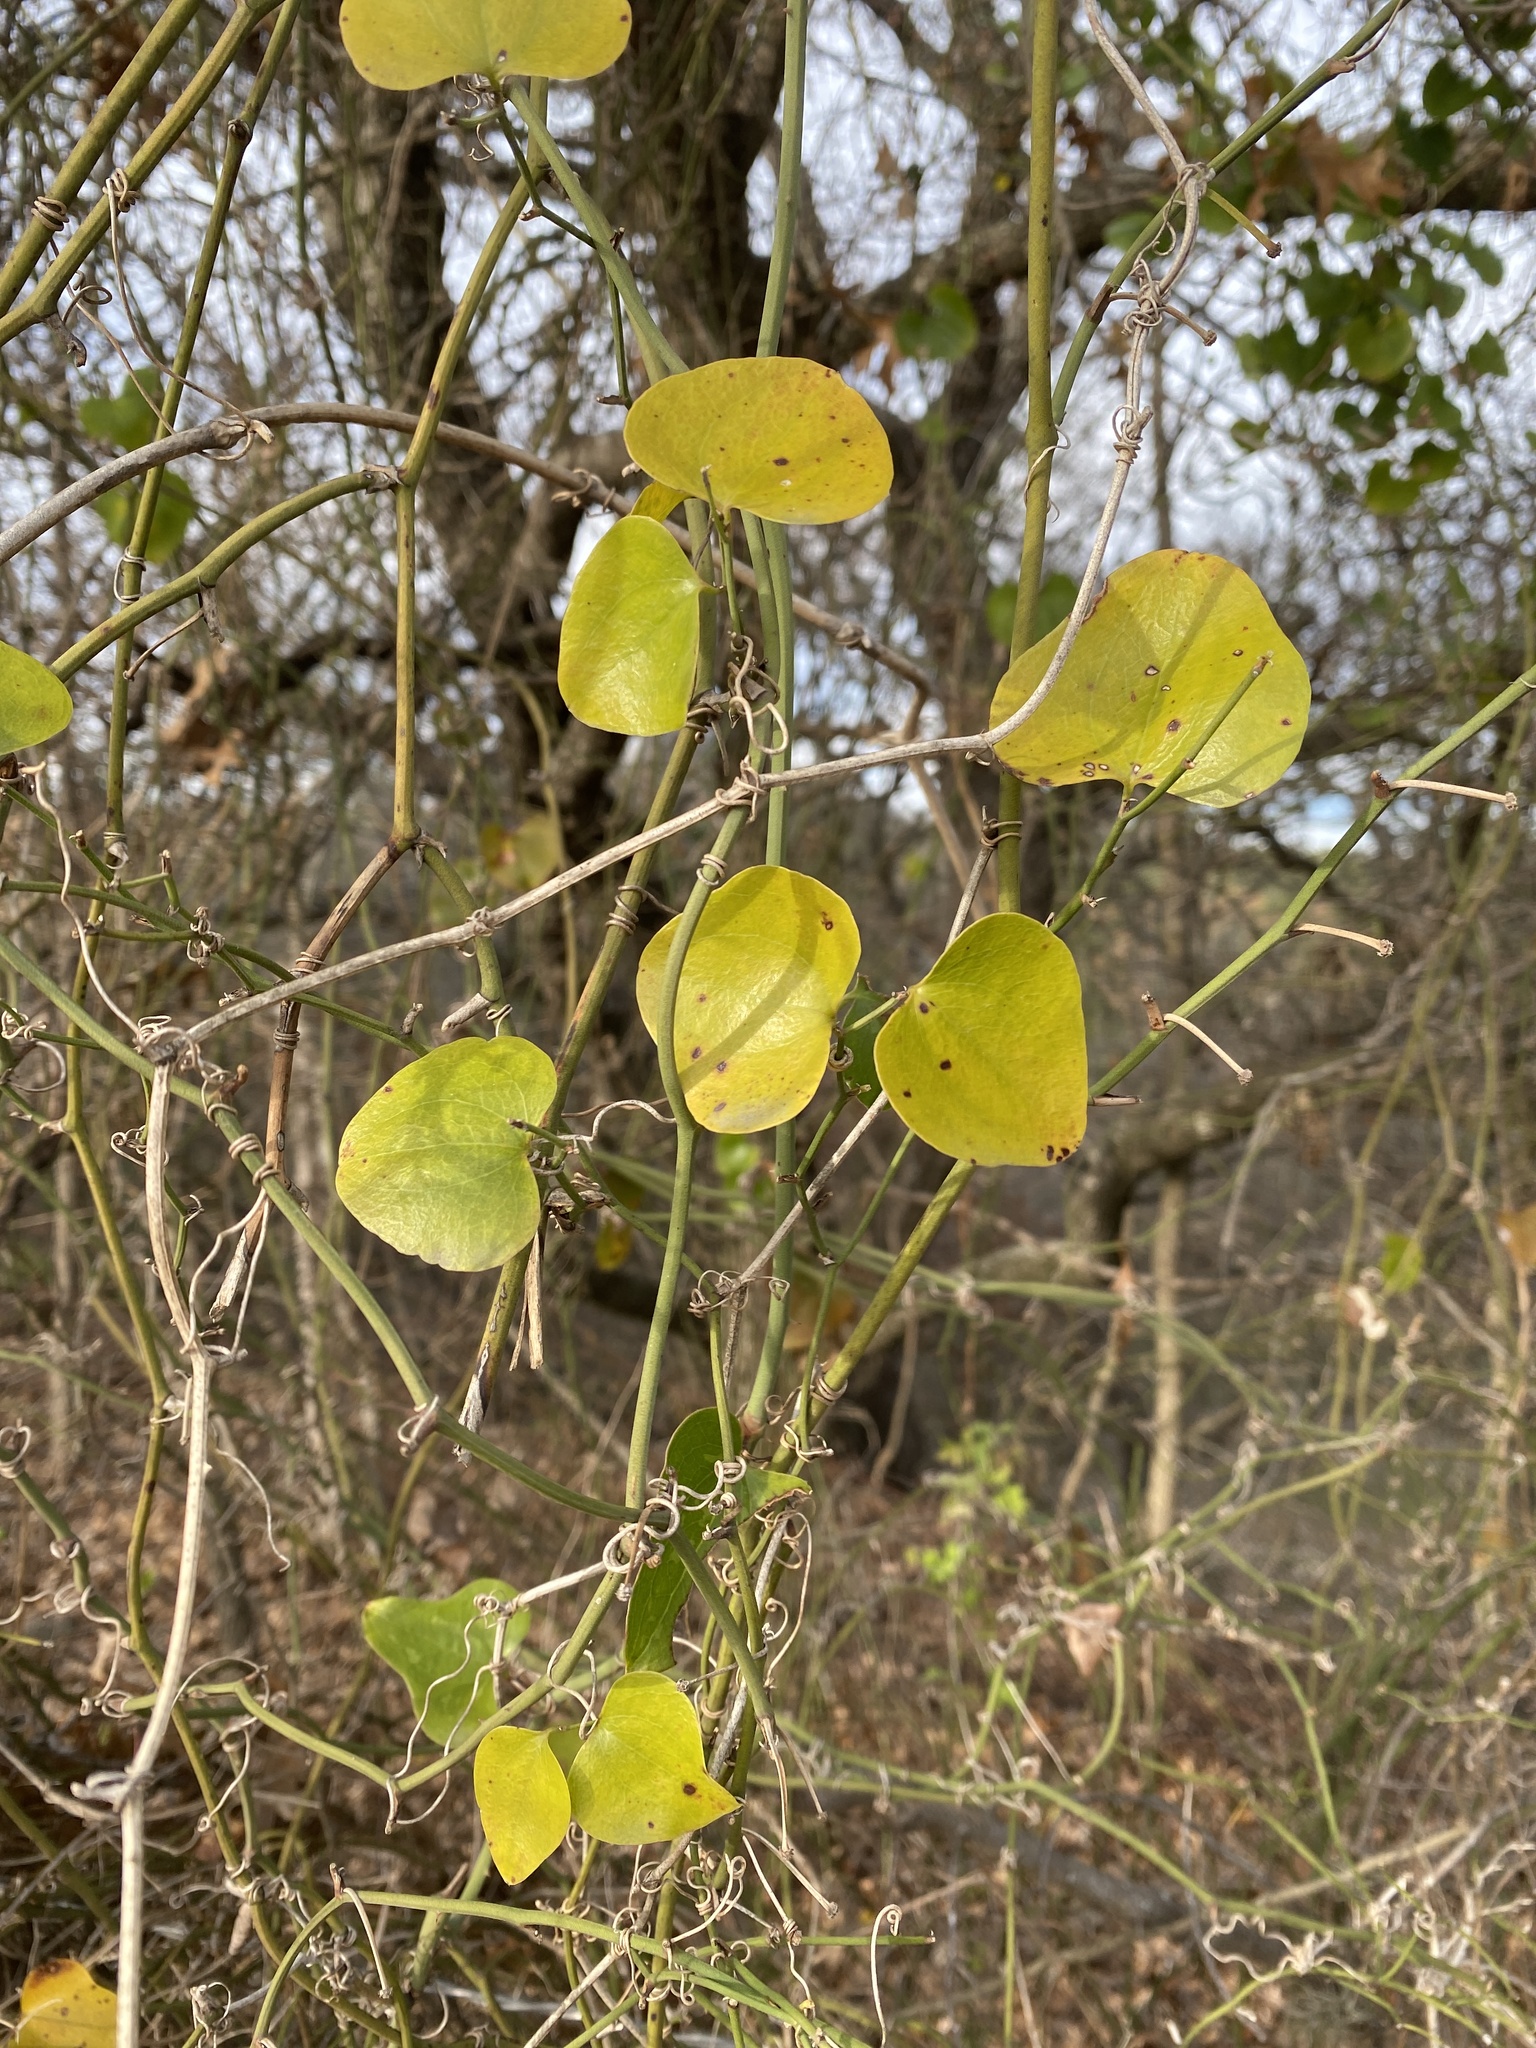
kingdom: Plantae
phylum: Tracheophyta
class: Liliopsida
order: Liliales
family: Smilacaceae
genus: Smilax
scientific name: Smilax rotundifolia
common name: Bullbriar
